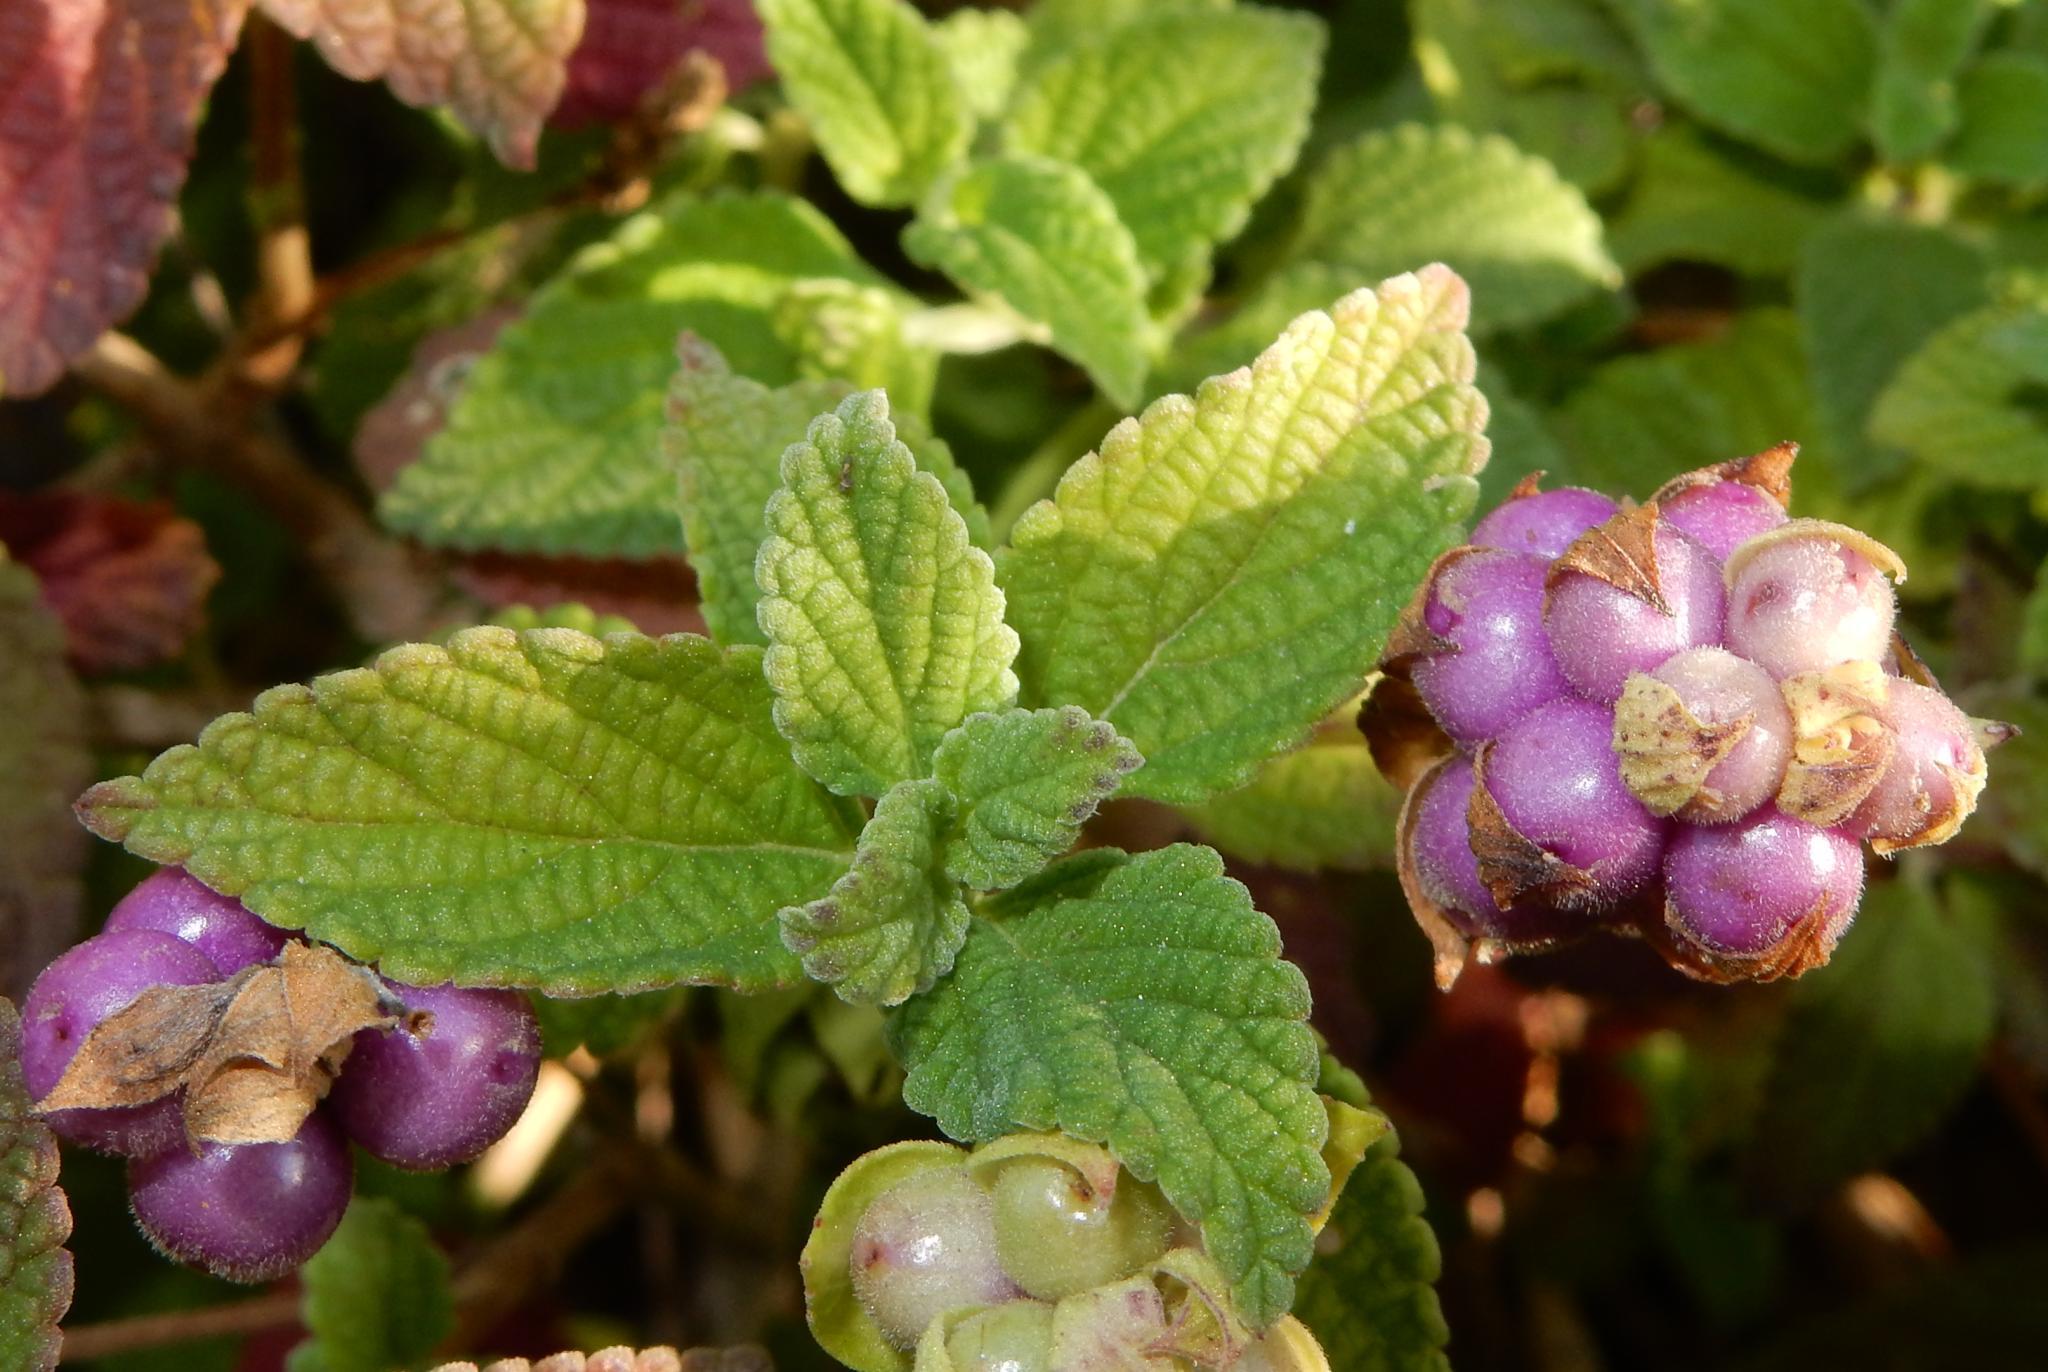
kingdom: Plantae
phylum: Tracheophyta
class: Magnoliopsida
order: Lamiales
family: Verbenaceae
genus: Lantana
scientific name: Lantana rugosa
